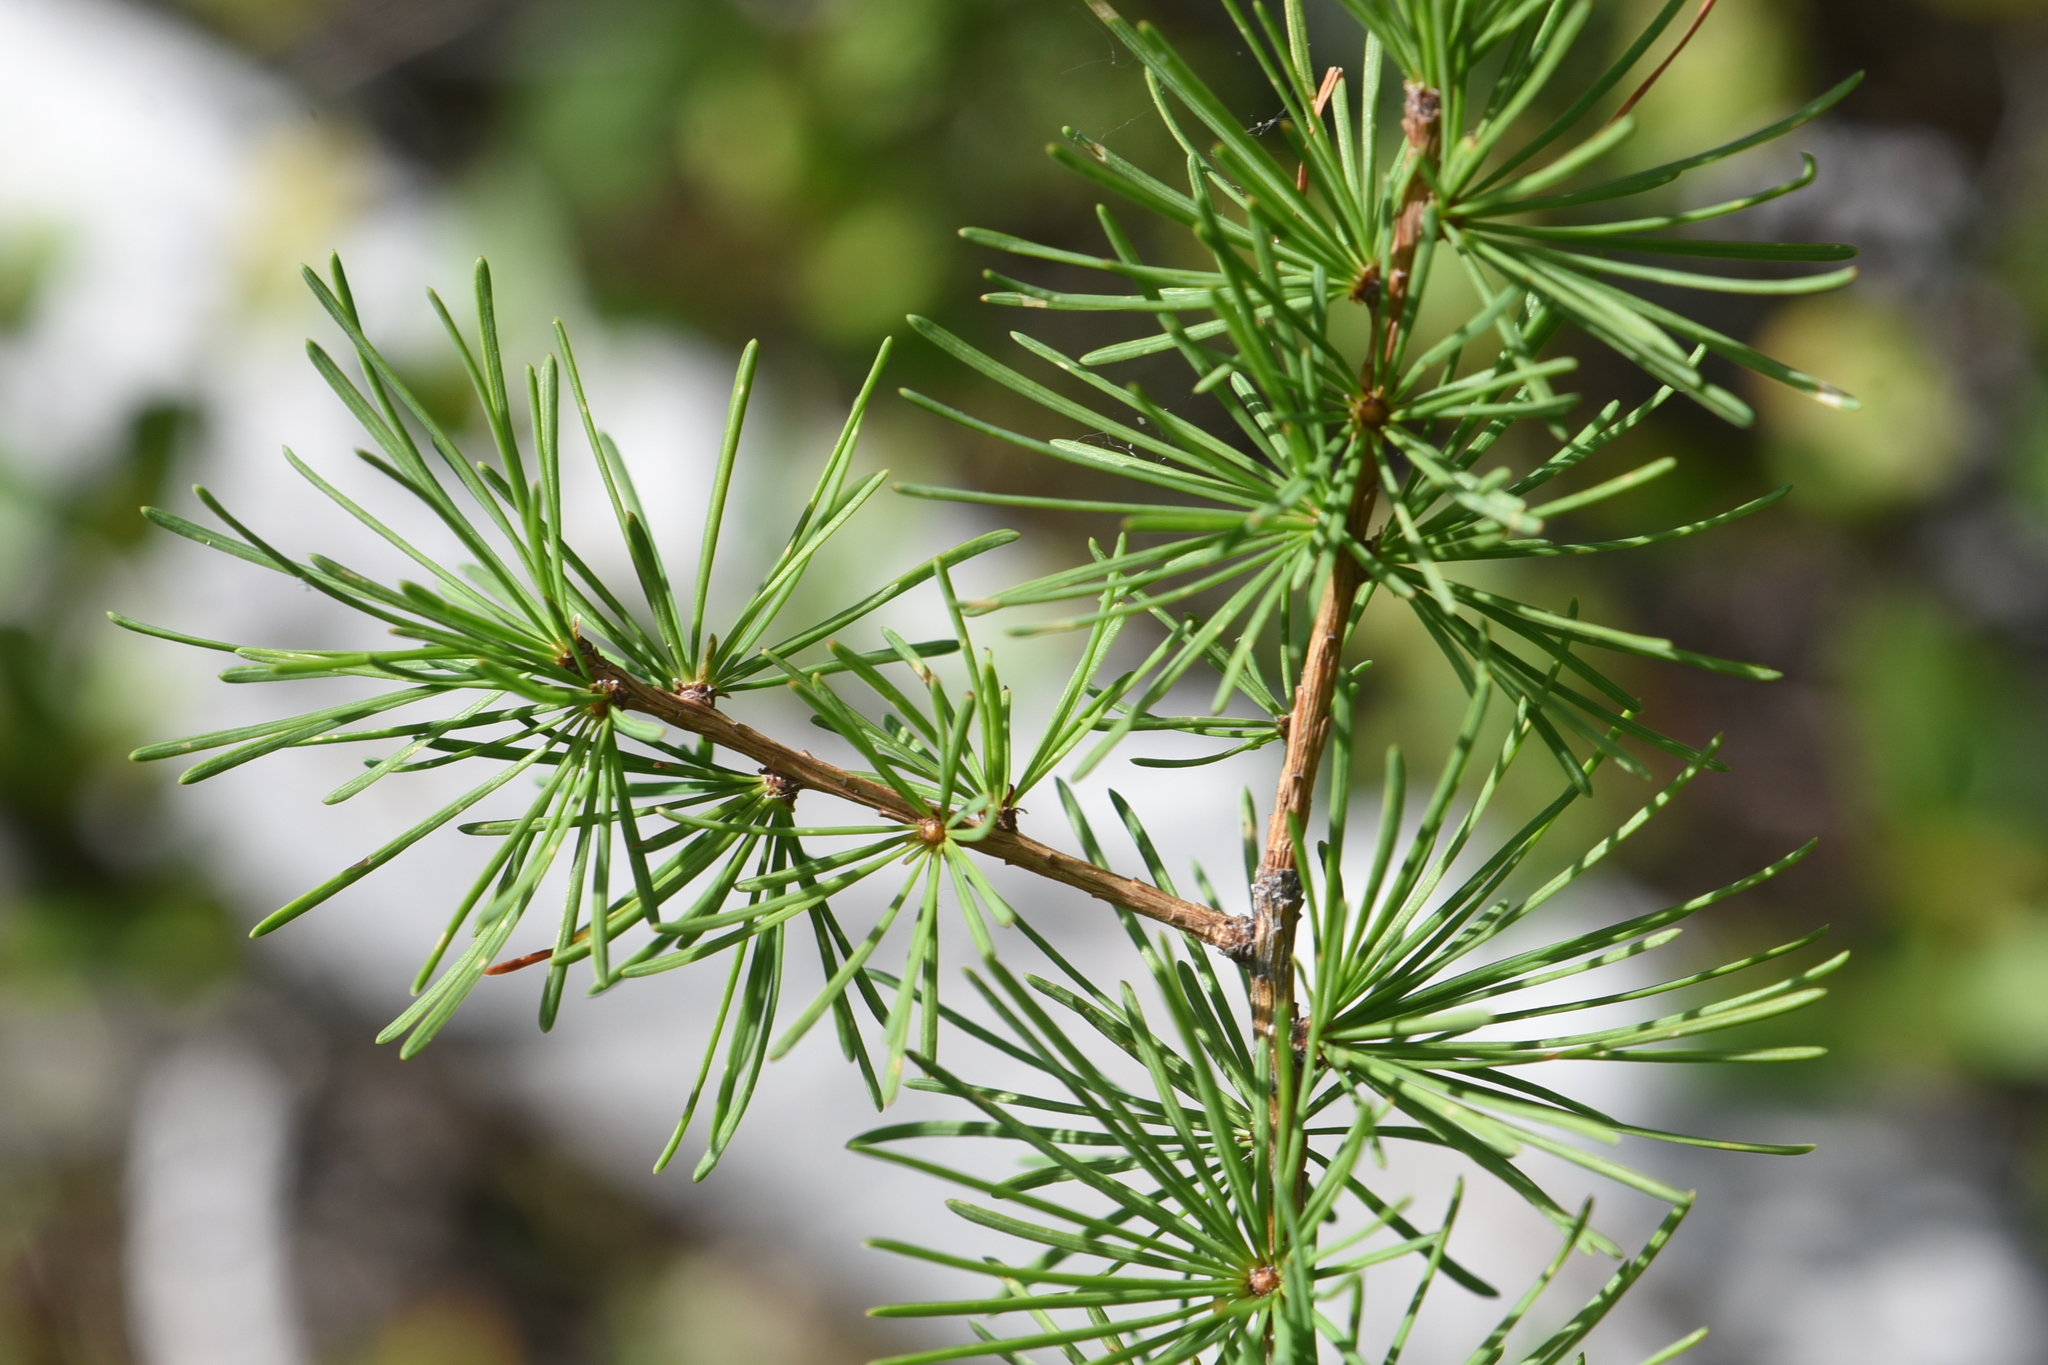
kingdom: Plantae
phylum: Tracheophyta
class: Pinopsida
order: Pinales
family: Pinaceae
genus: Larix
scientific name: Larix occidentalis
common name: Western larch
